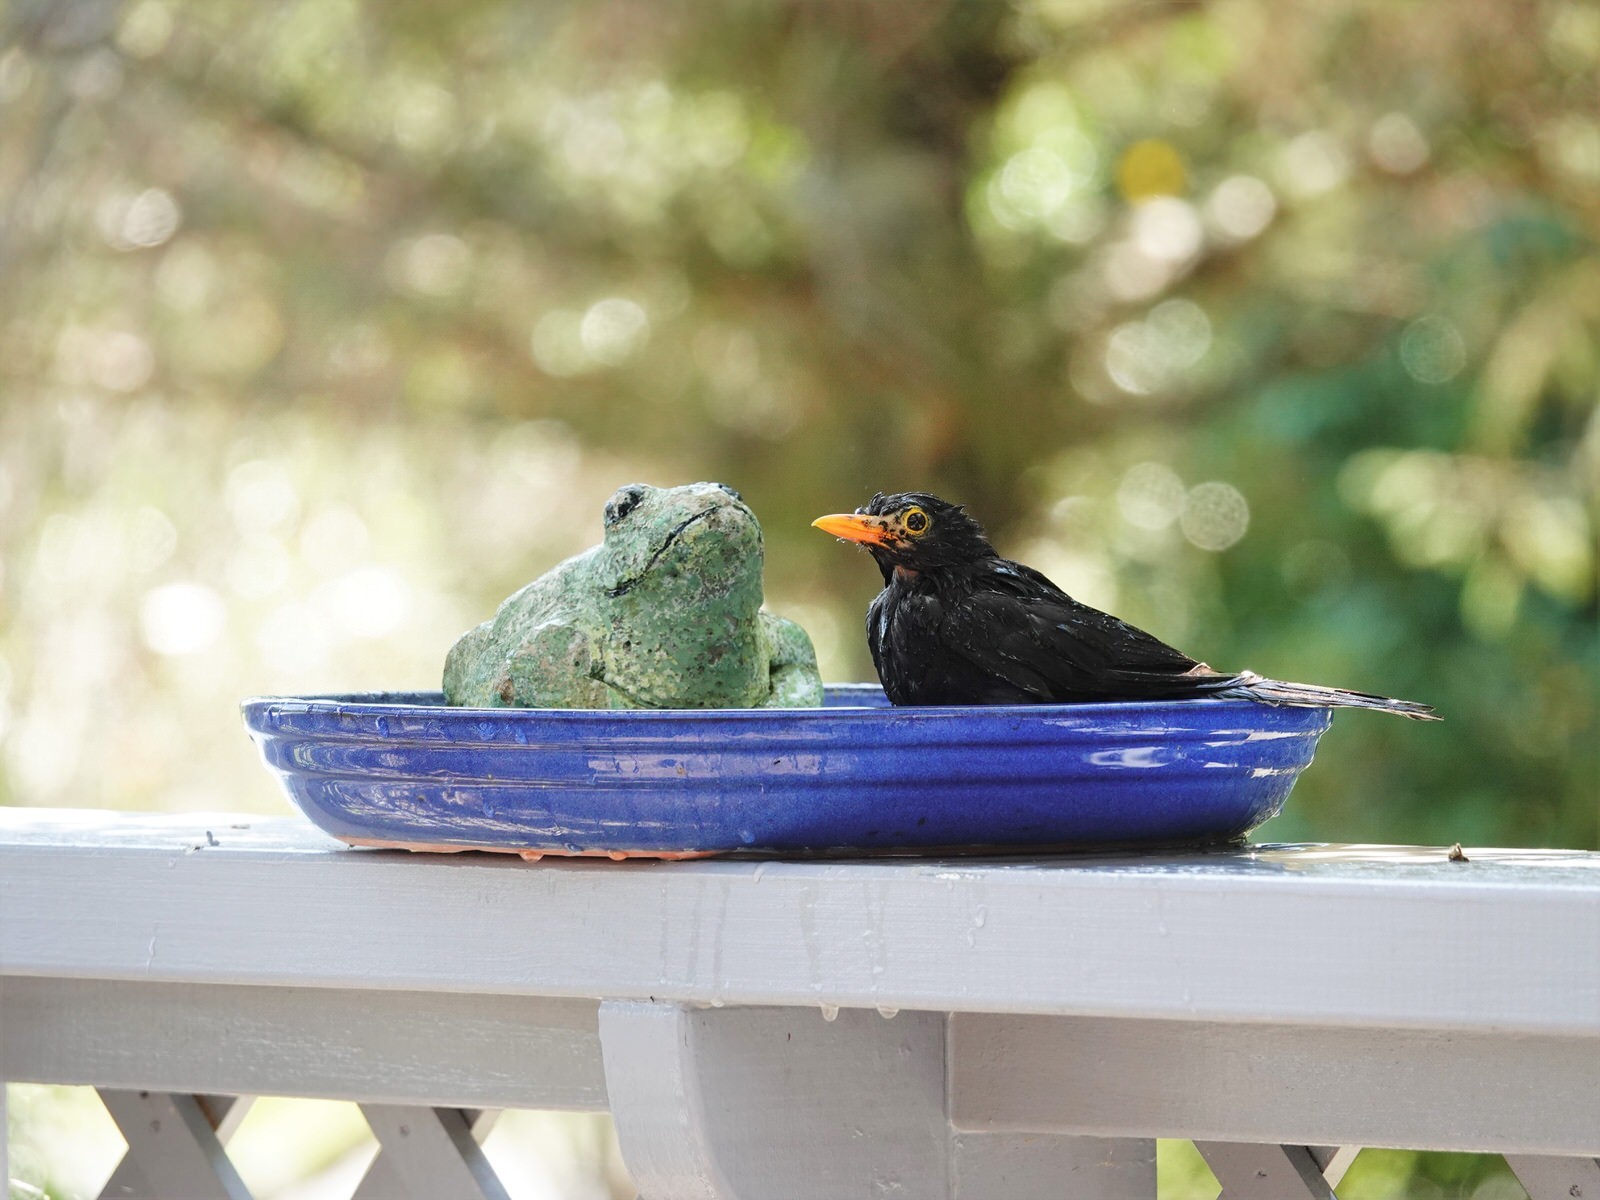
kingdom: Animalia
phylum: Chordata
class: Aves
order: Passeriformes
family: Turdidae
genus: Turdus
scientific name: Turdus merula
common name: Common blackbird
